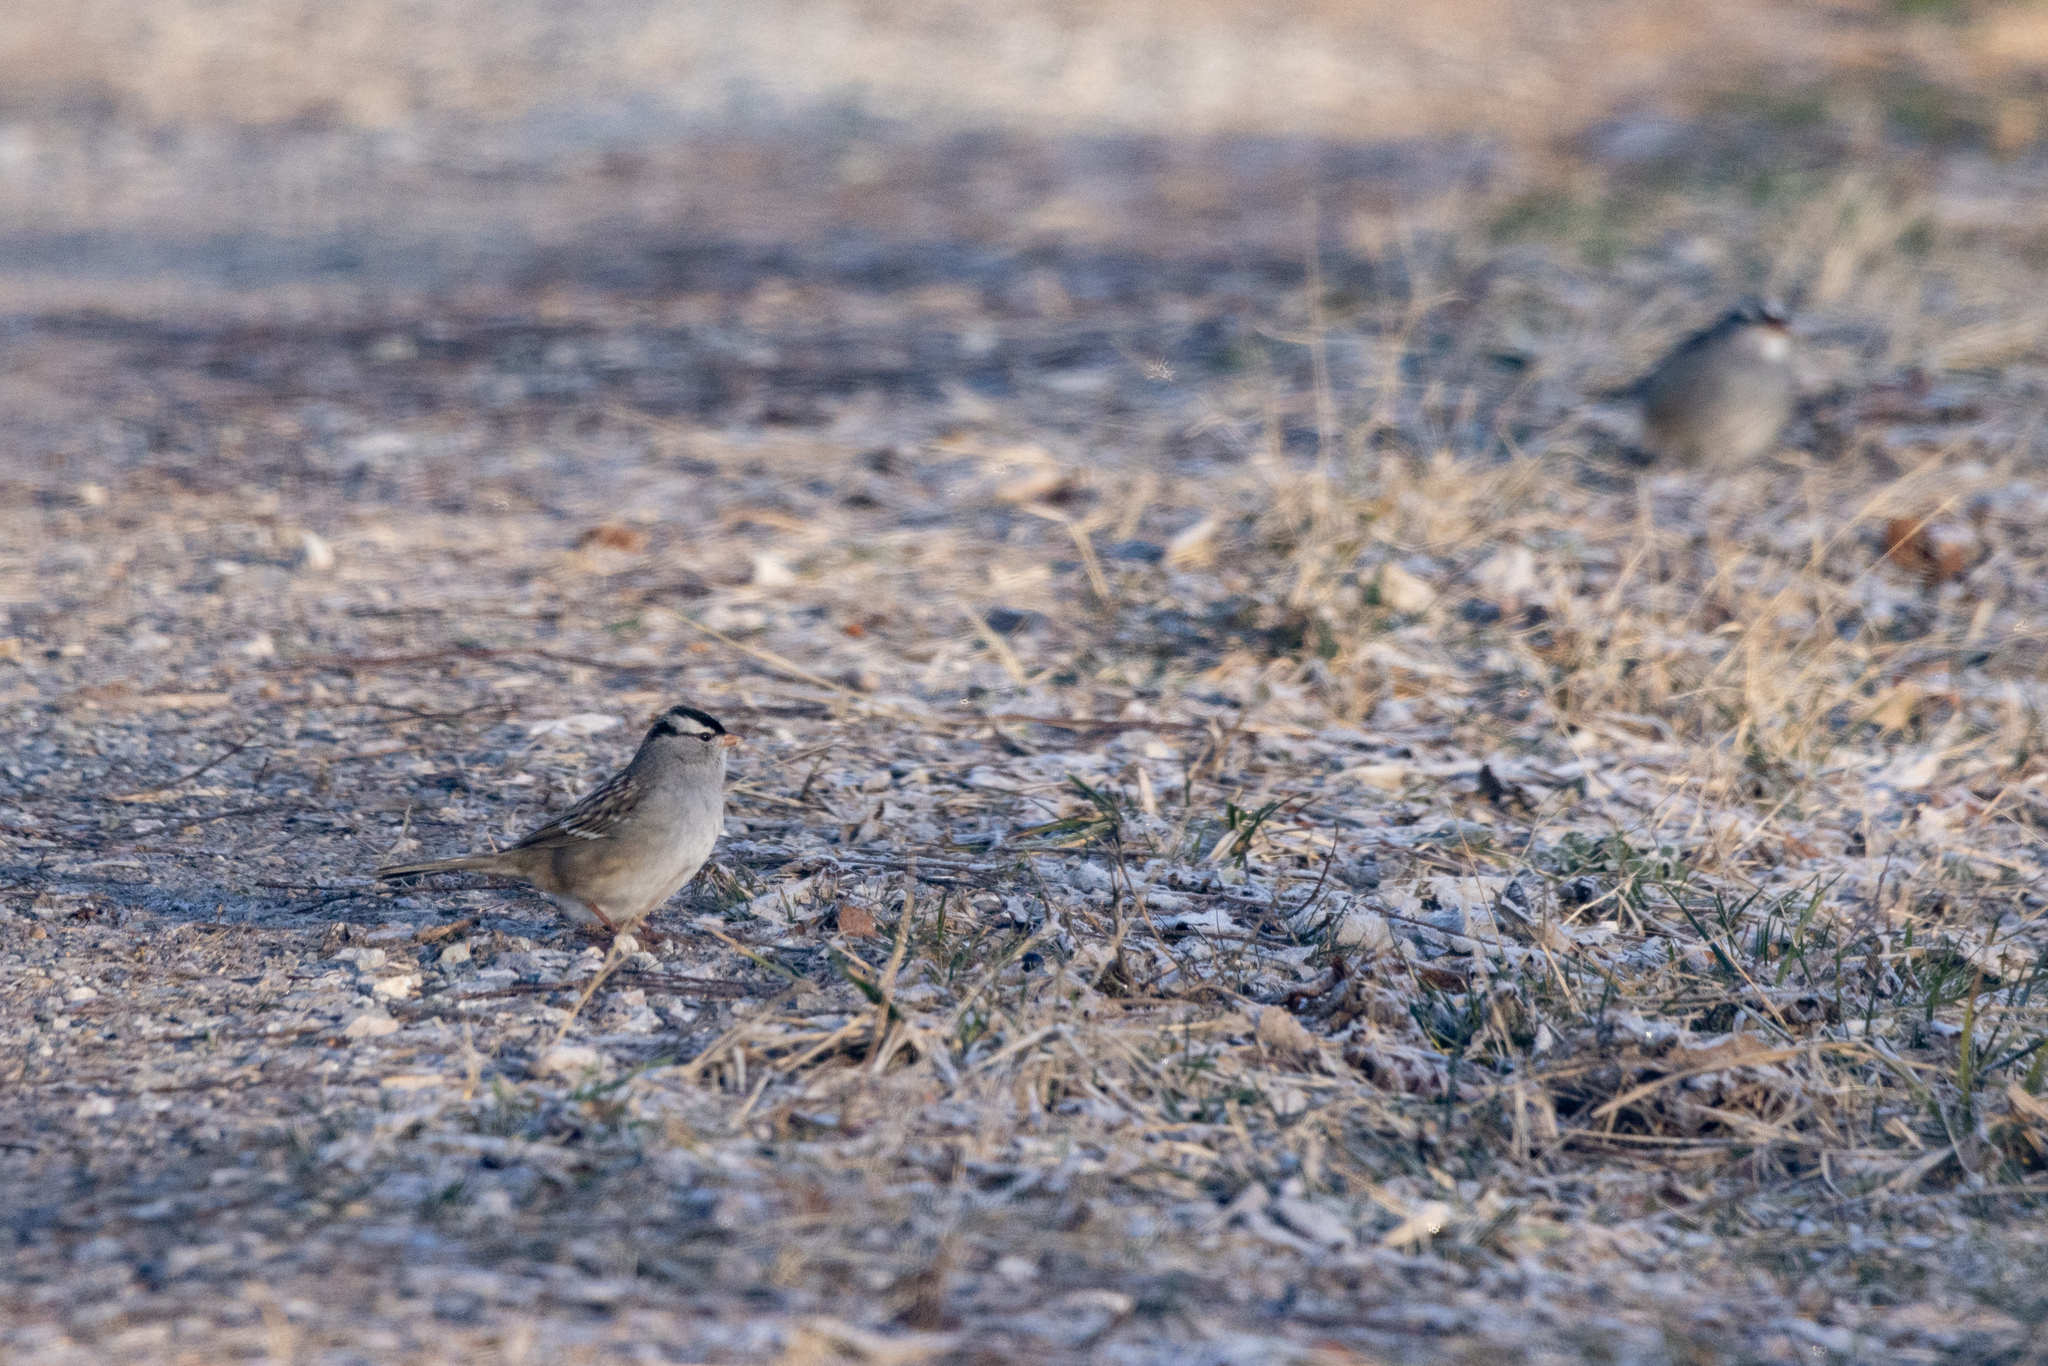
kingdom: Animalia
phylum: Chordata
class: Aves
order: Passeriformes
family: Passerellidae
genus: Zonotrichia
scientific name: Zonotrichia leucophrys
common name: White-crowned sparrow
